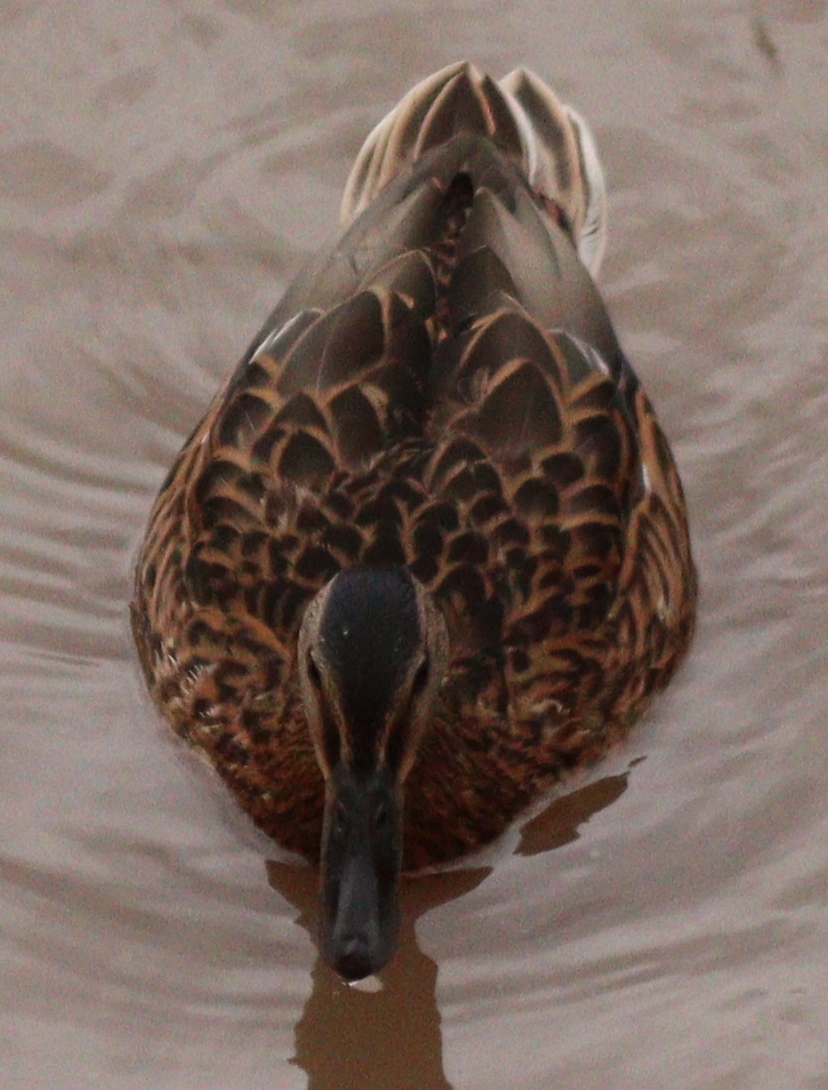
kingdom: Animalia
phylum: Chordata
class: Aves
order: Anseriformes
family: Anatidae
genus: Anas
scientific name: Anas platyrhynchos
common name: Mallard
